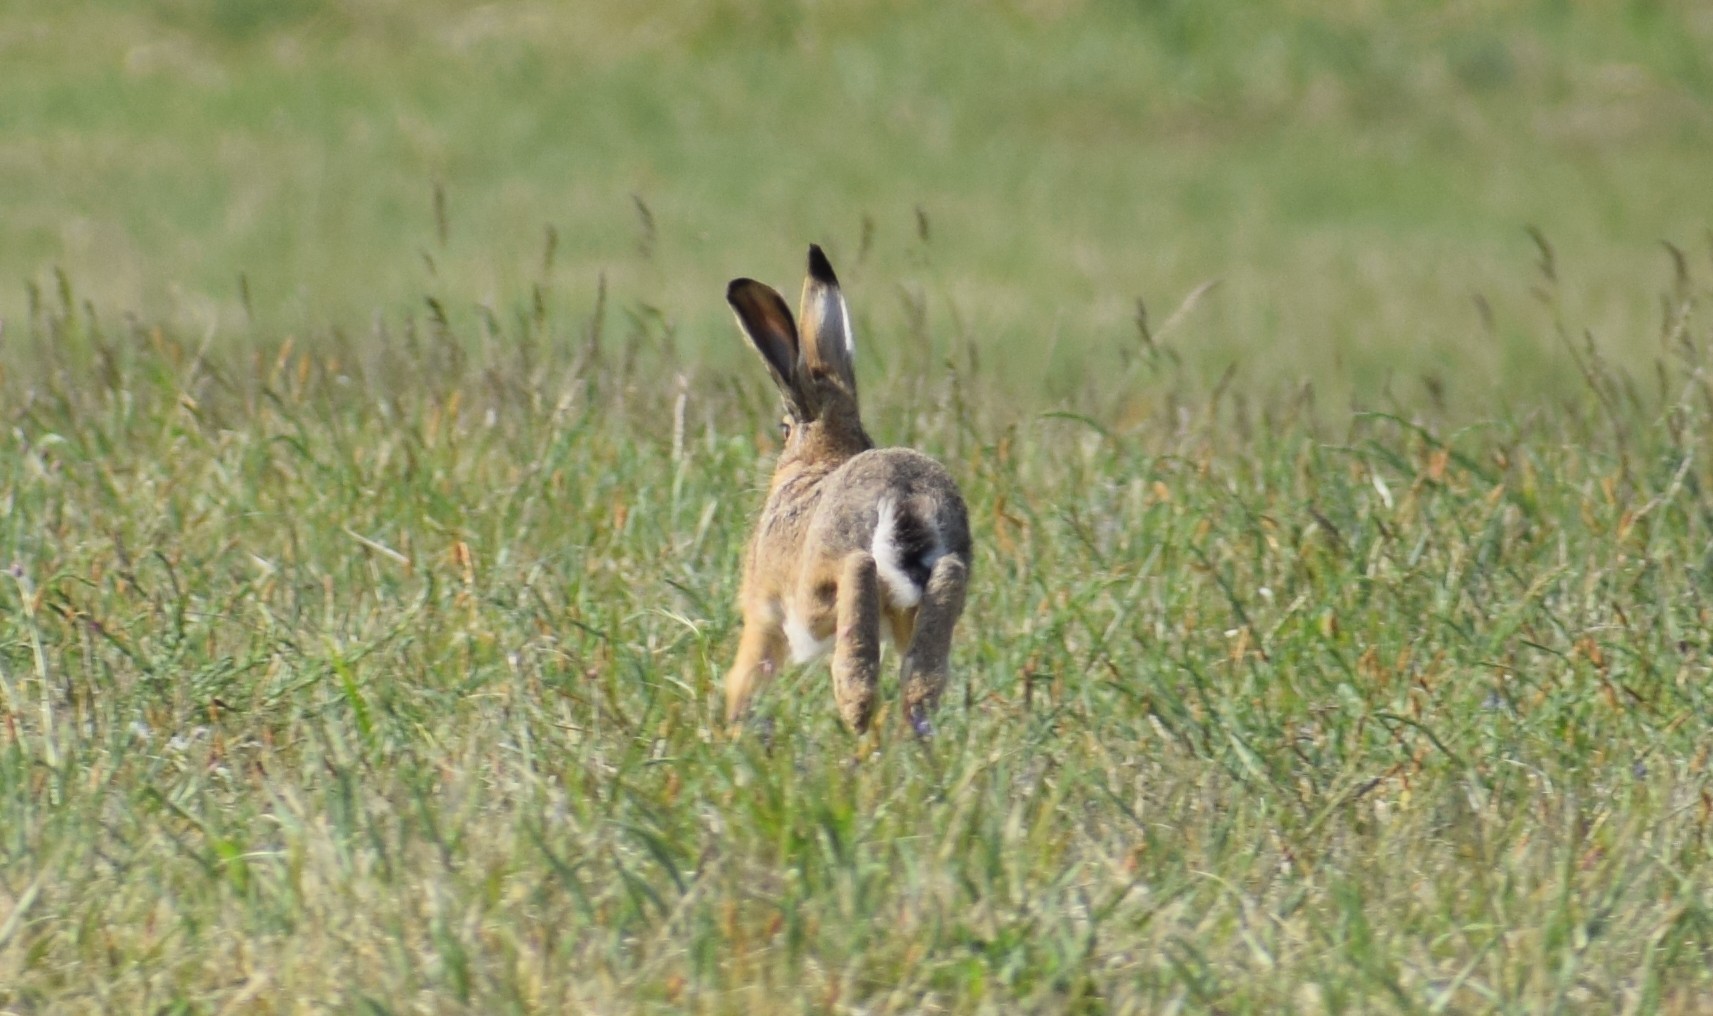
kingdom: Animalia
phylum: Chordata
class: Mammalia
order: Lagomorpha
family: Leporidae
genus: Lepus
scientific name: Lepus europaeus
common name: European hare
